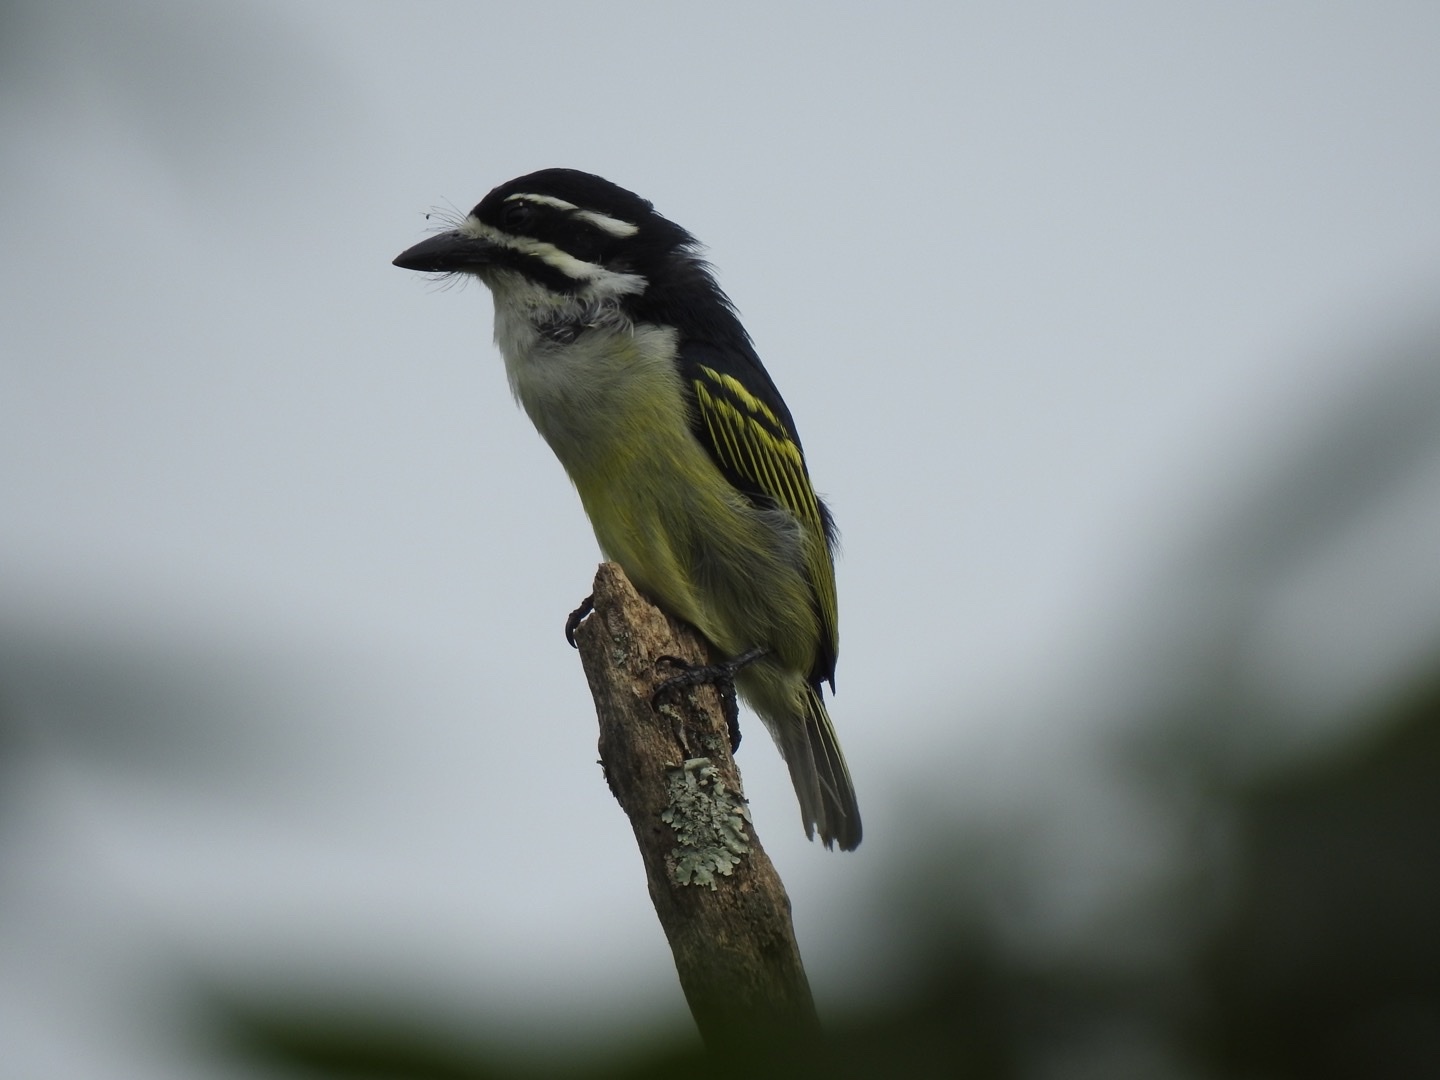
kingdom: Animalia
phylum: Chordata
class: Aves
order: Piciformes
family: Lybiidae
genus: Pogoniulus
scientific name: Pogoniulus bilineatus
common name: Yellow-rumped tinkerbird
